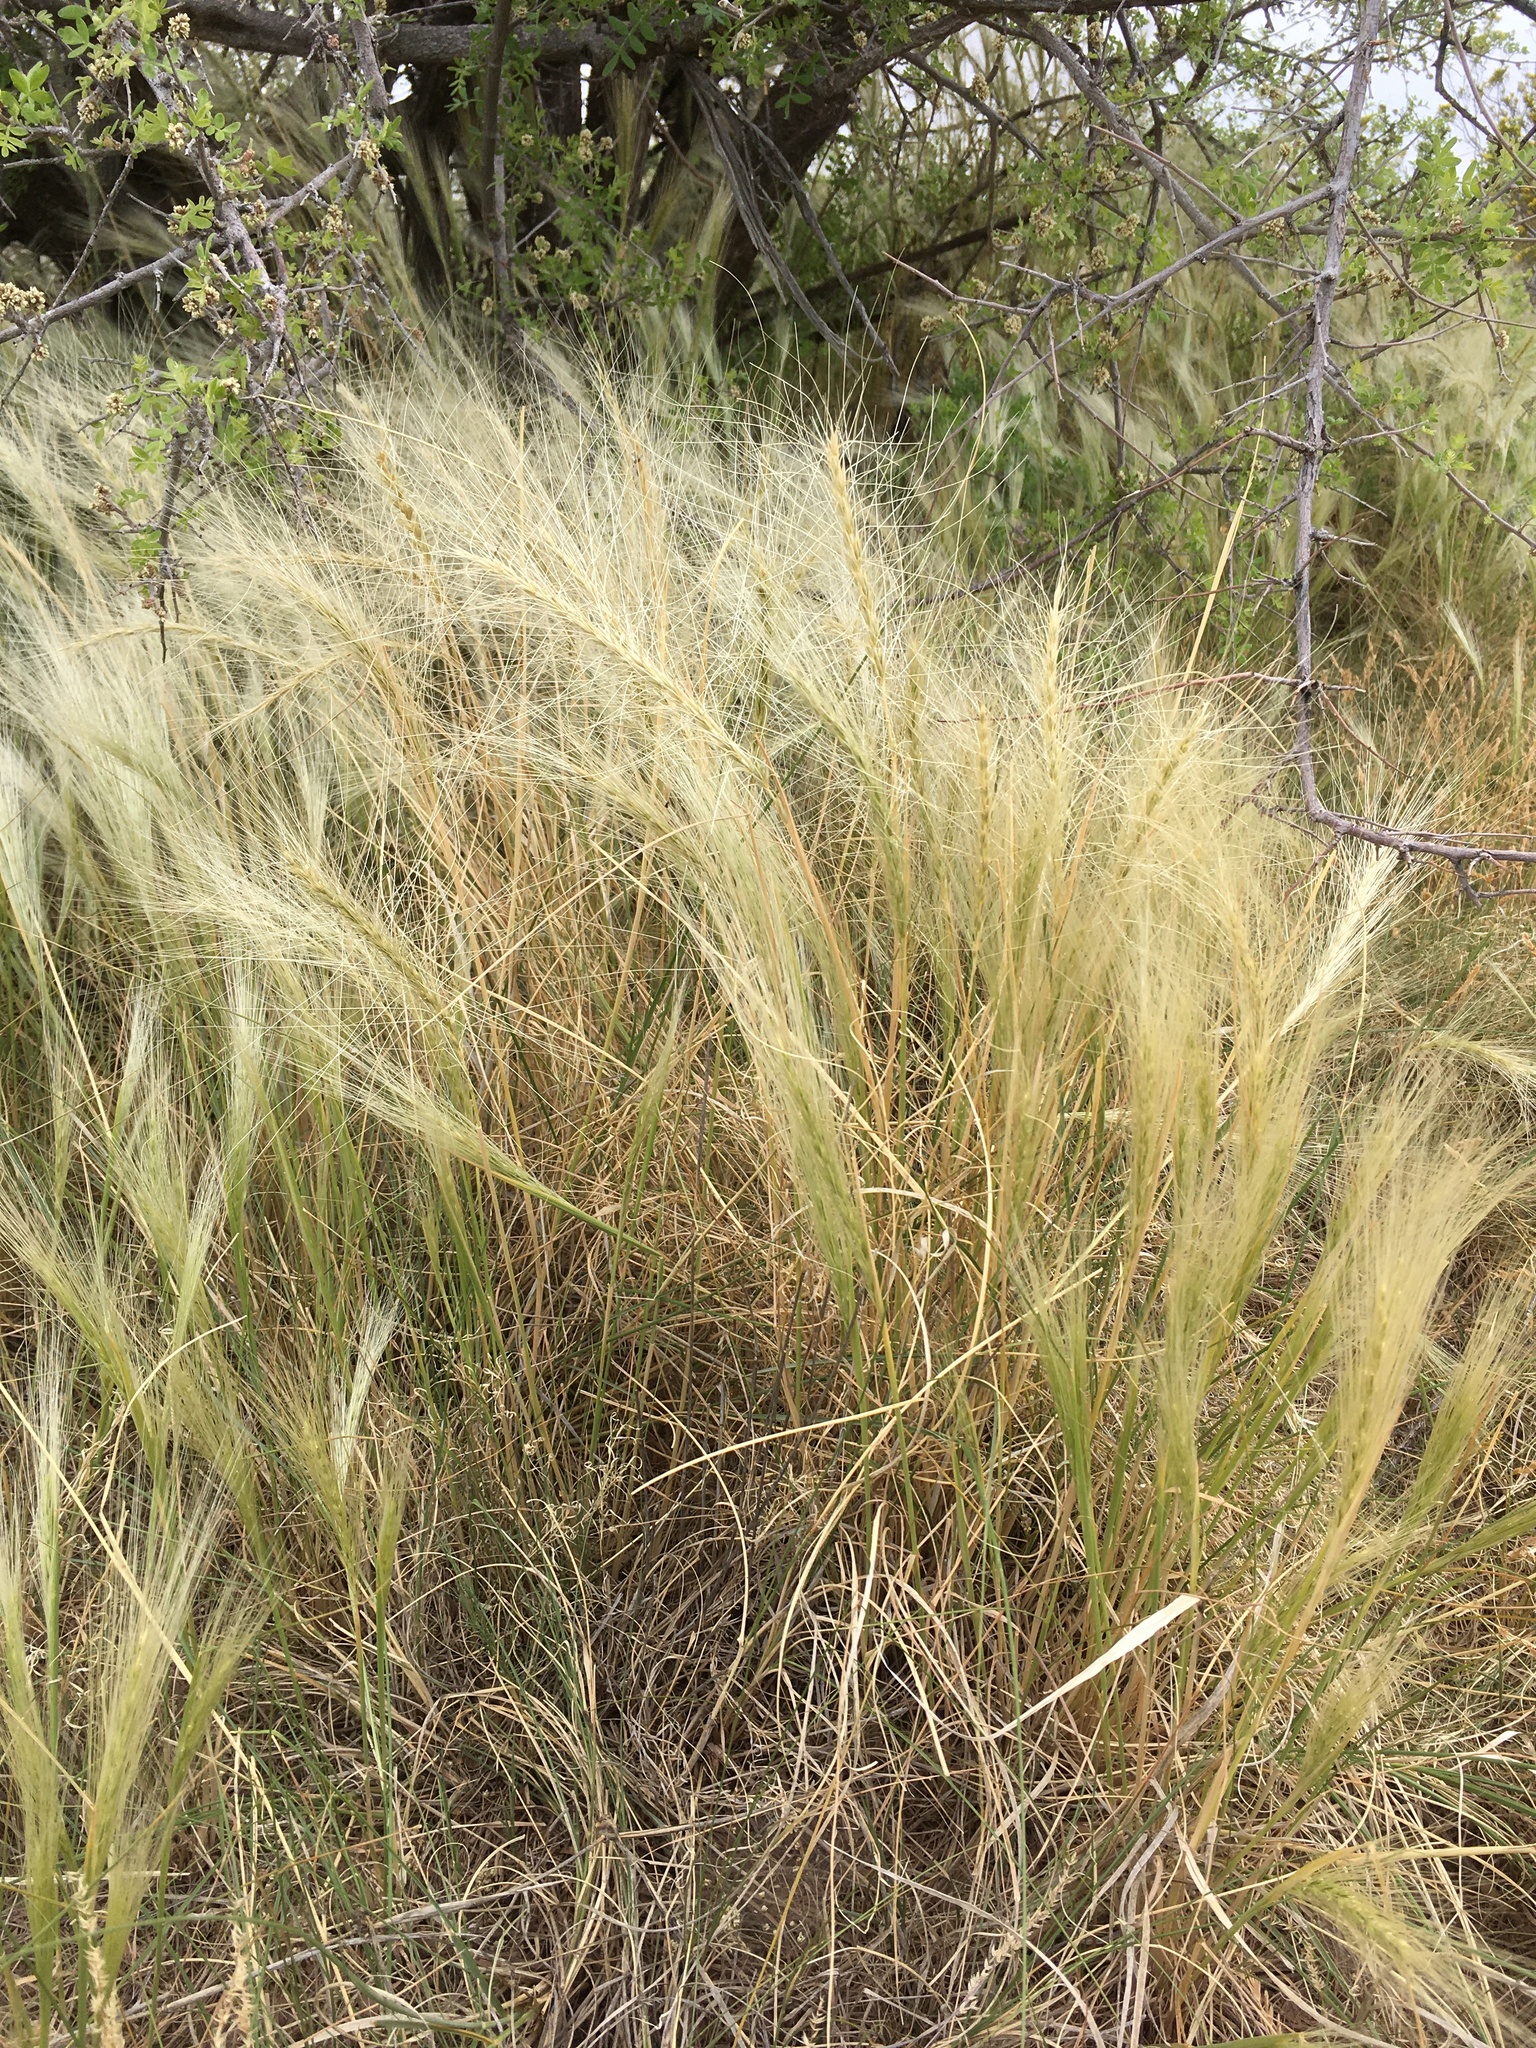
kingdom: Plantae
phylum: Tracheophyta
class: Liliopsida
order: Poales
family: Poaceae
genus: Elymus
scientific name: Elymus longifolius
